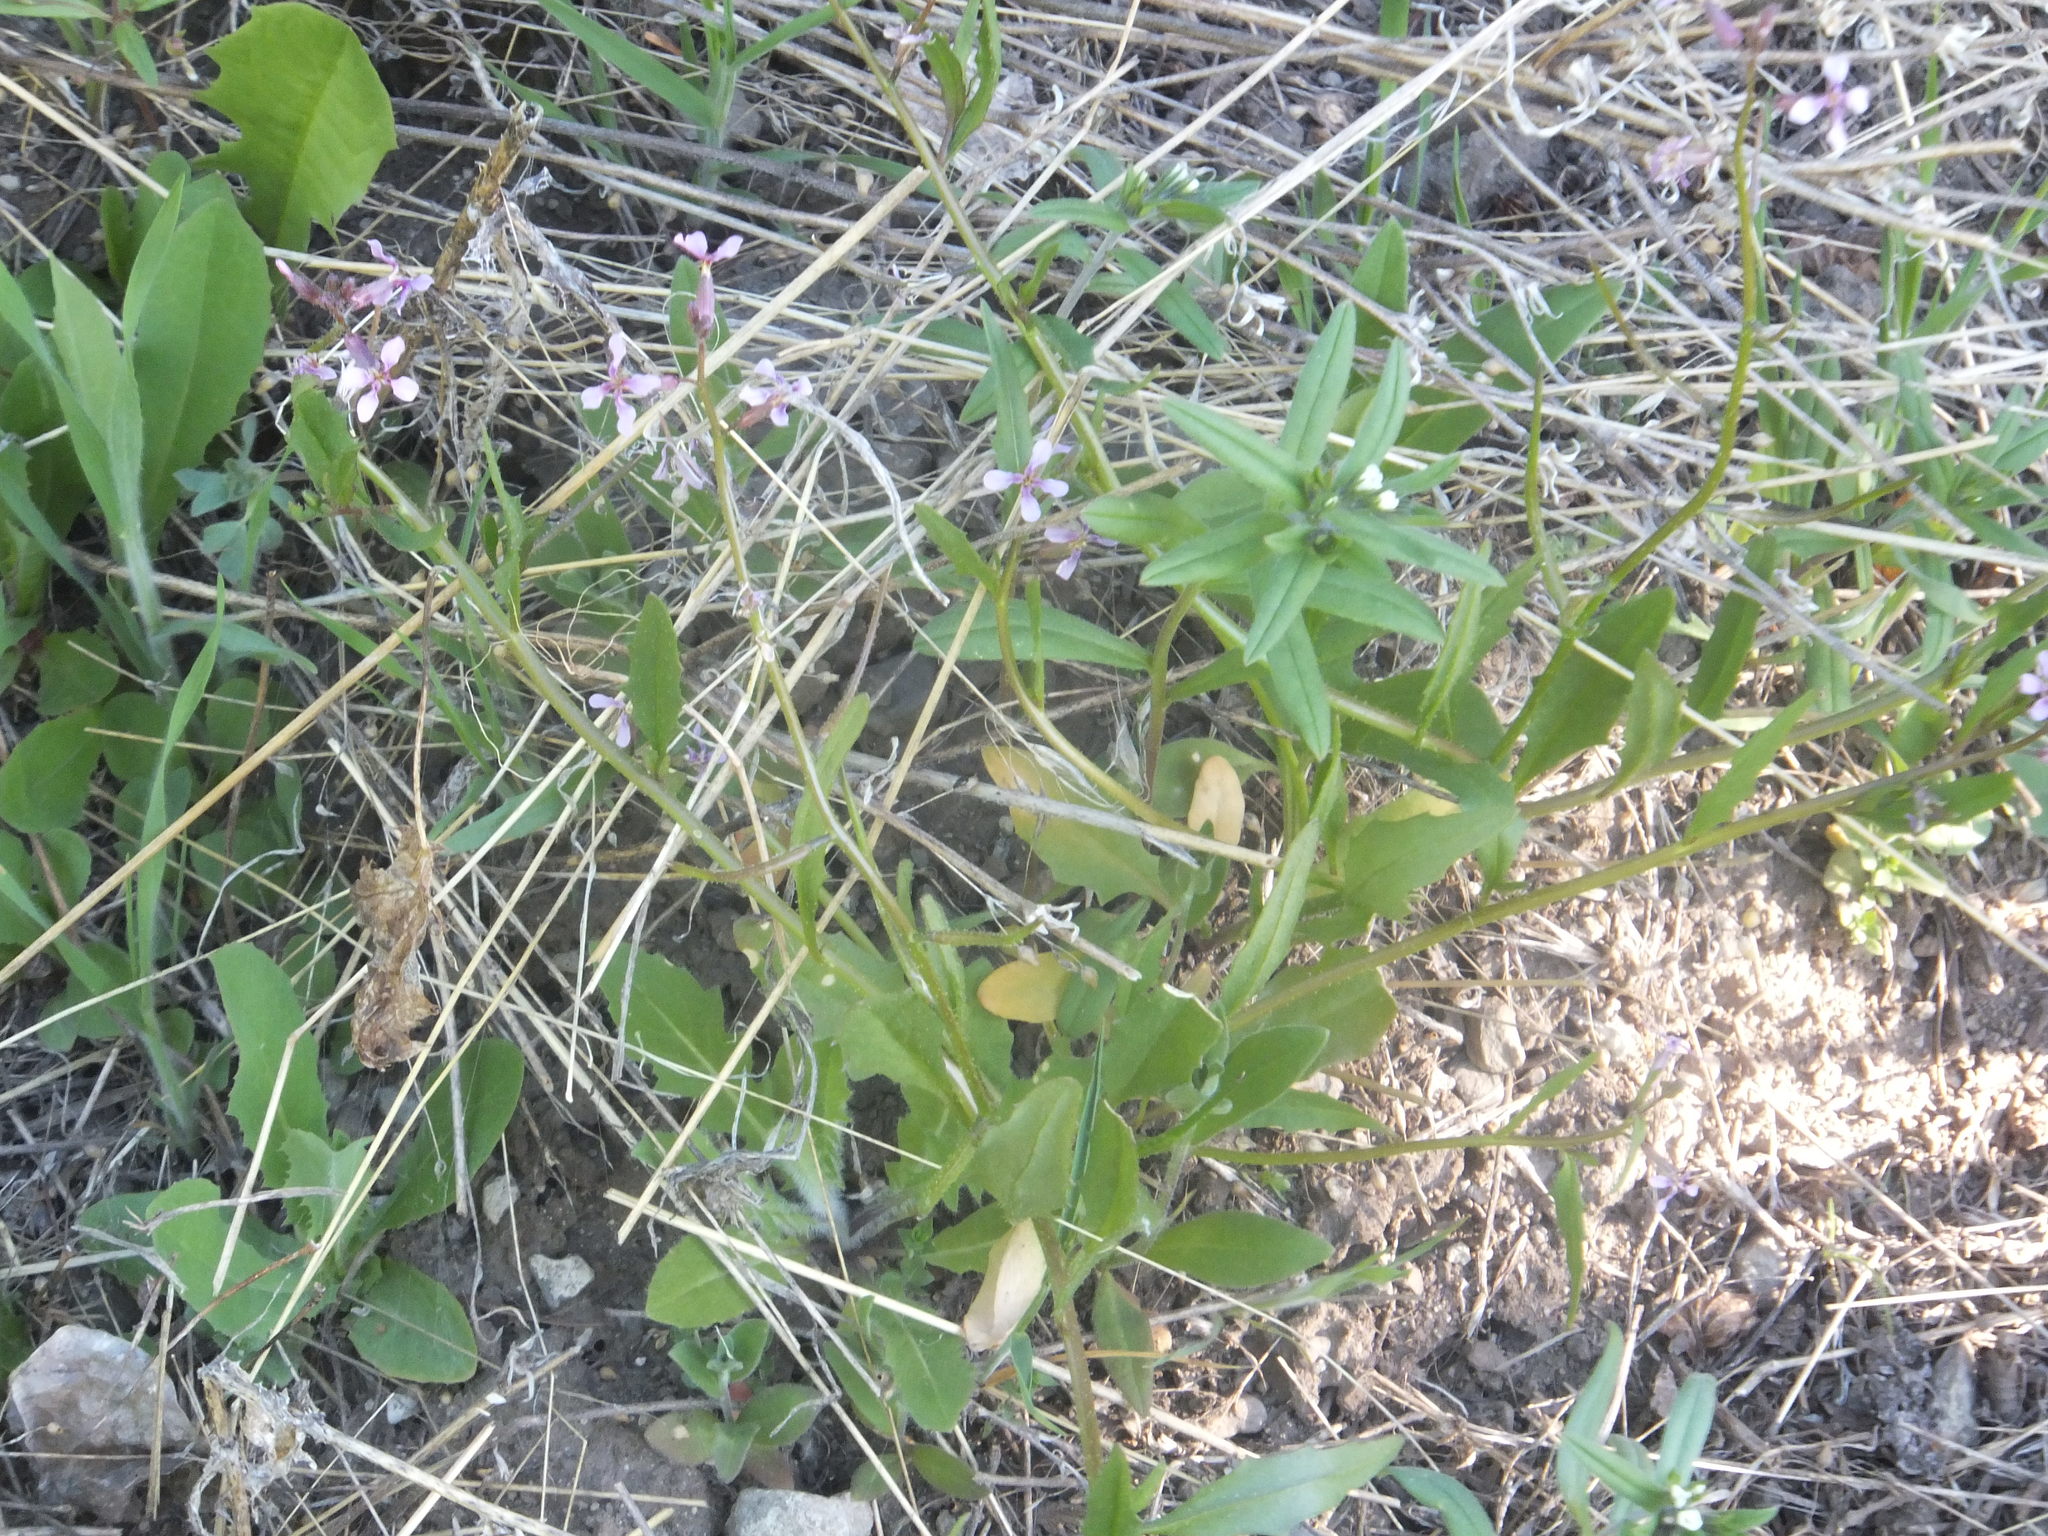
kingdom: Plantae
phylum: Tracheophyta
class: Magnoliopsida
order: Brassicales
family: Brassicaceae
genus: Chorispora
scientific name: Chorispora tenella
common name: Crossflower
